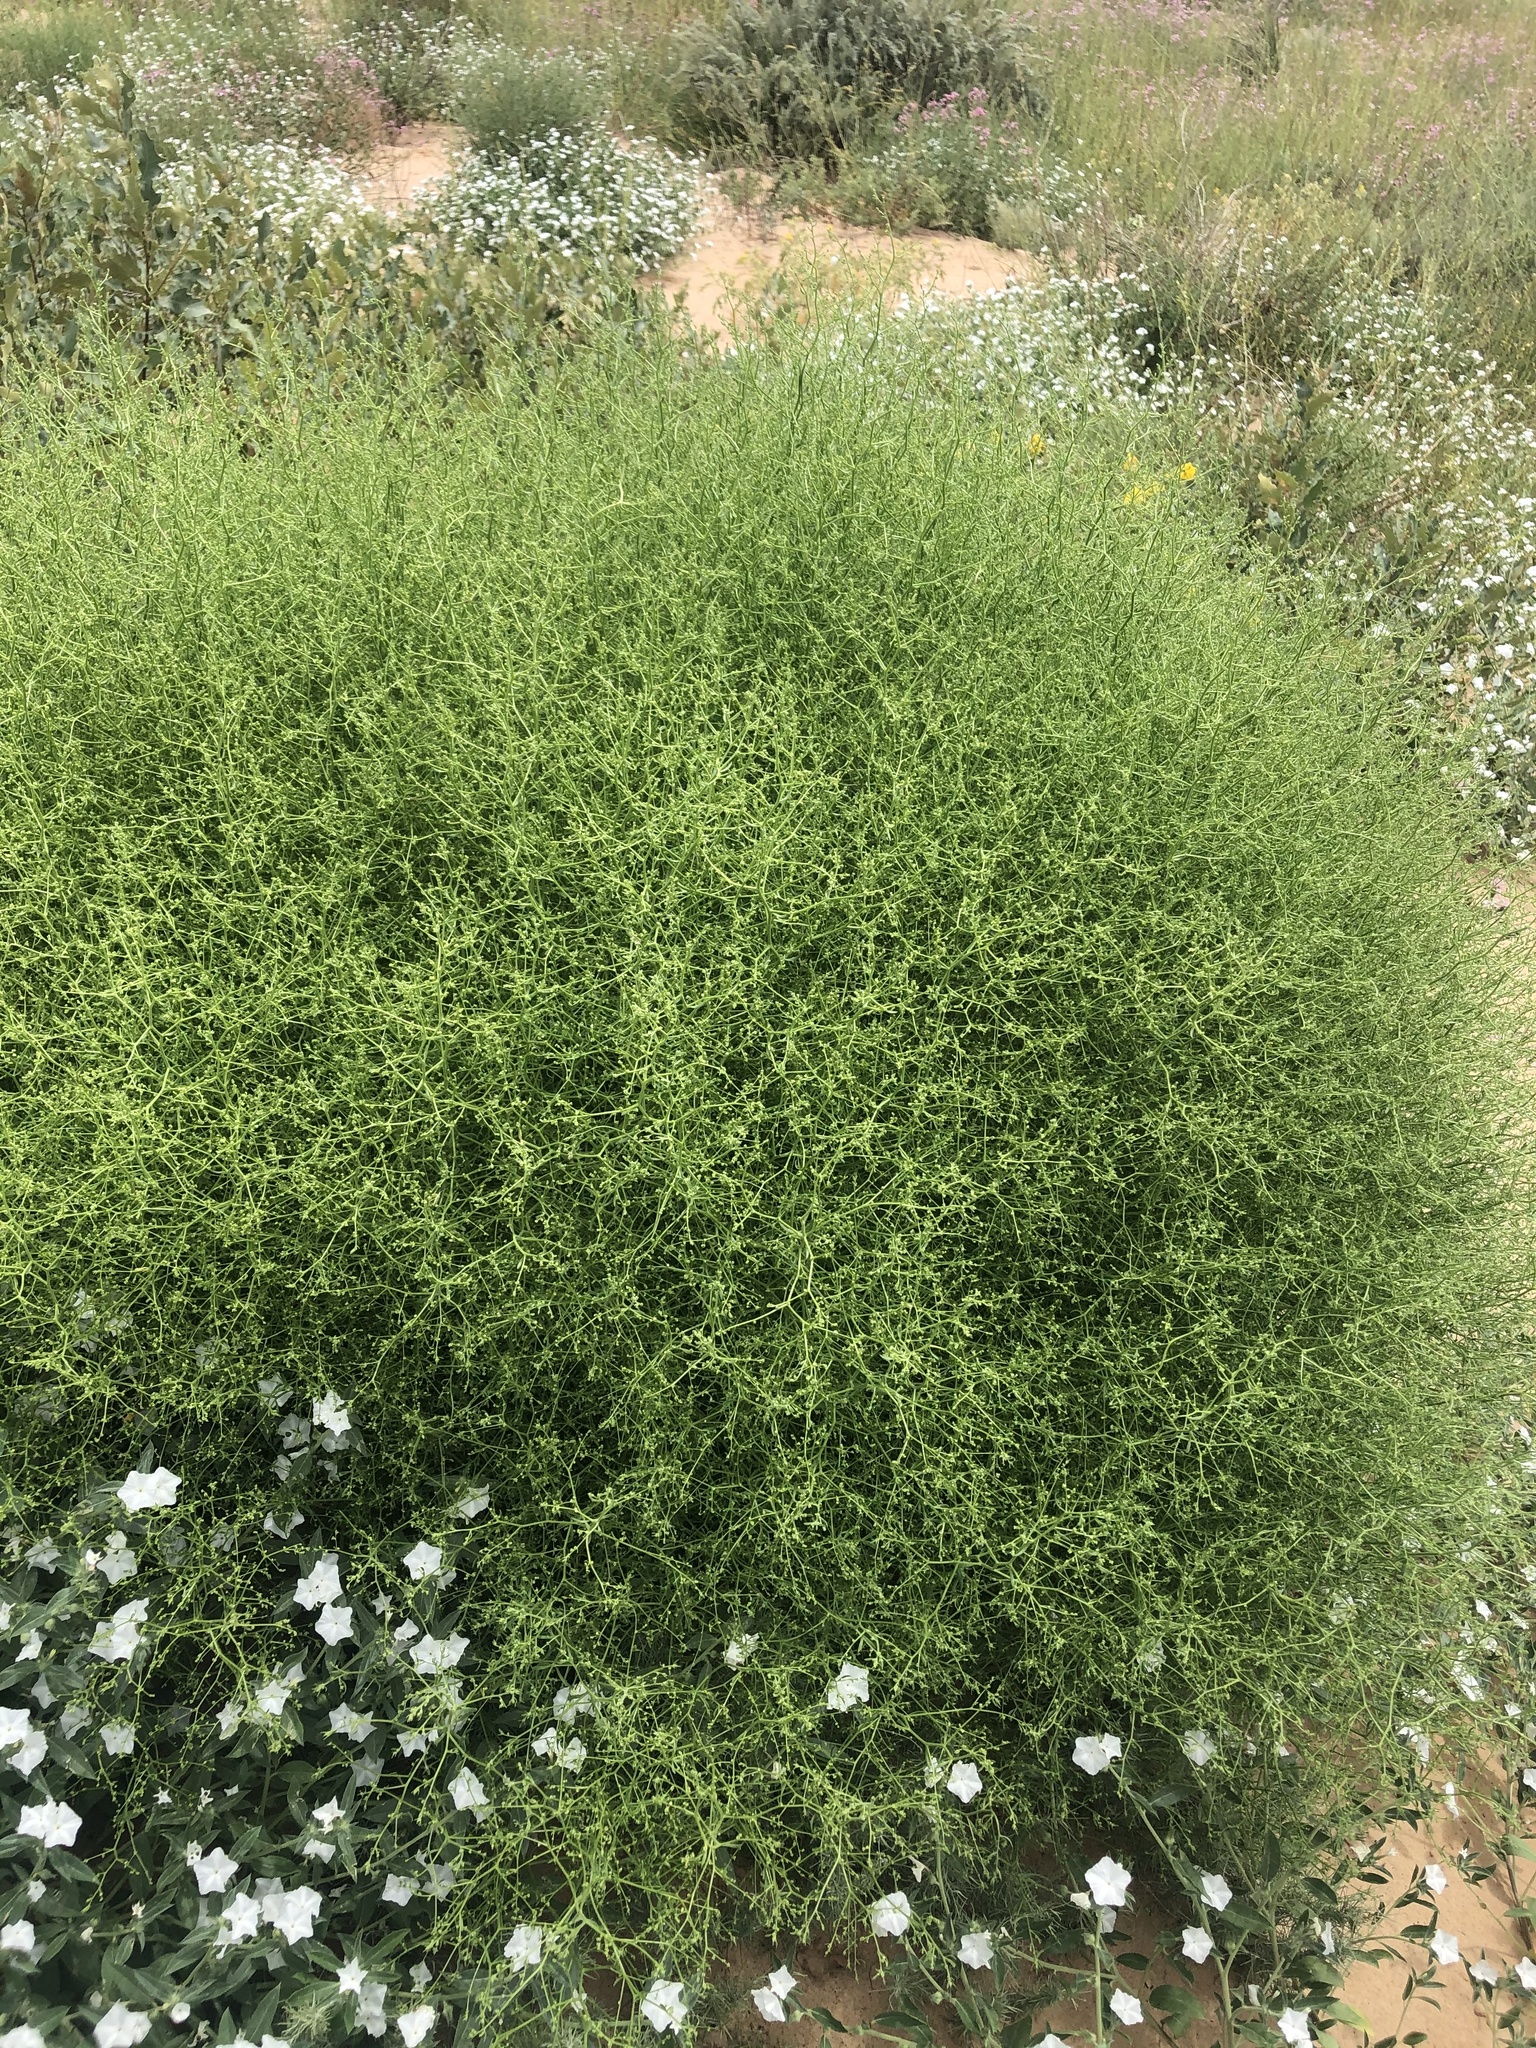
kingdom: Plantae
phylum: Tracheophyta
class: Magnoliopsida
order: Caryophyllales
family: Amaranthaceae
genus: Dysphania
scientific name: Dysphania atriplicifolia
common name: Plains tumbleweed
